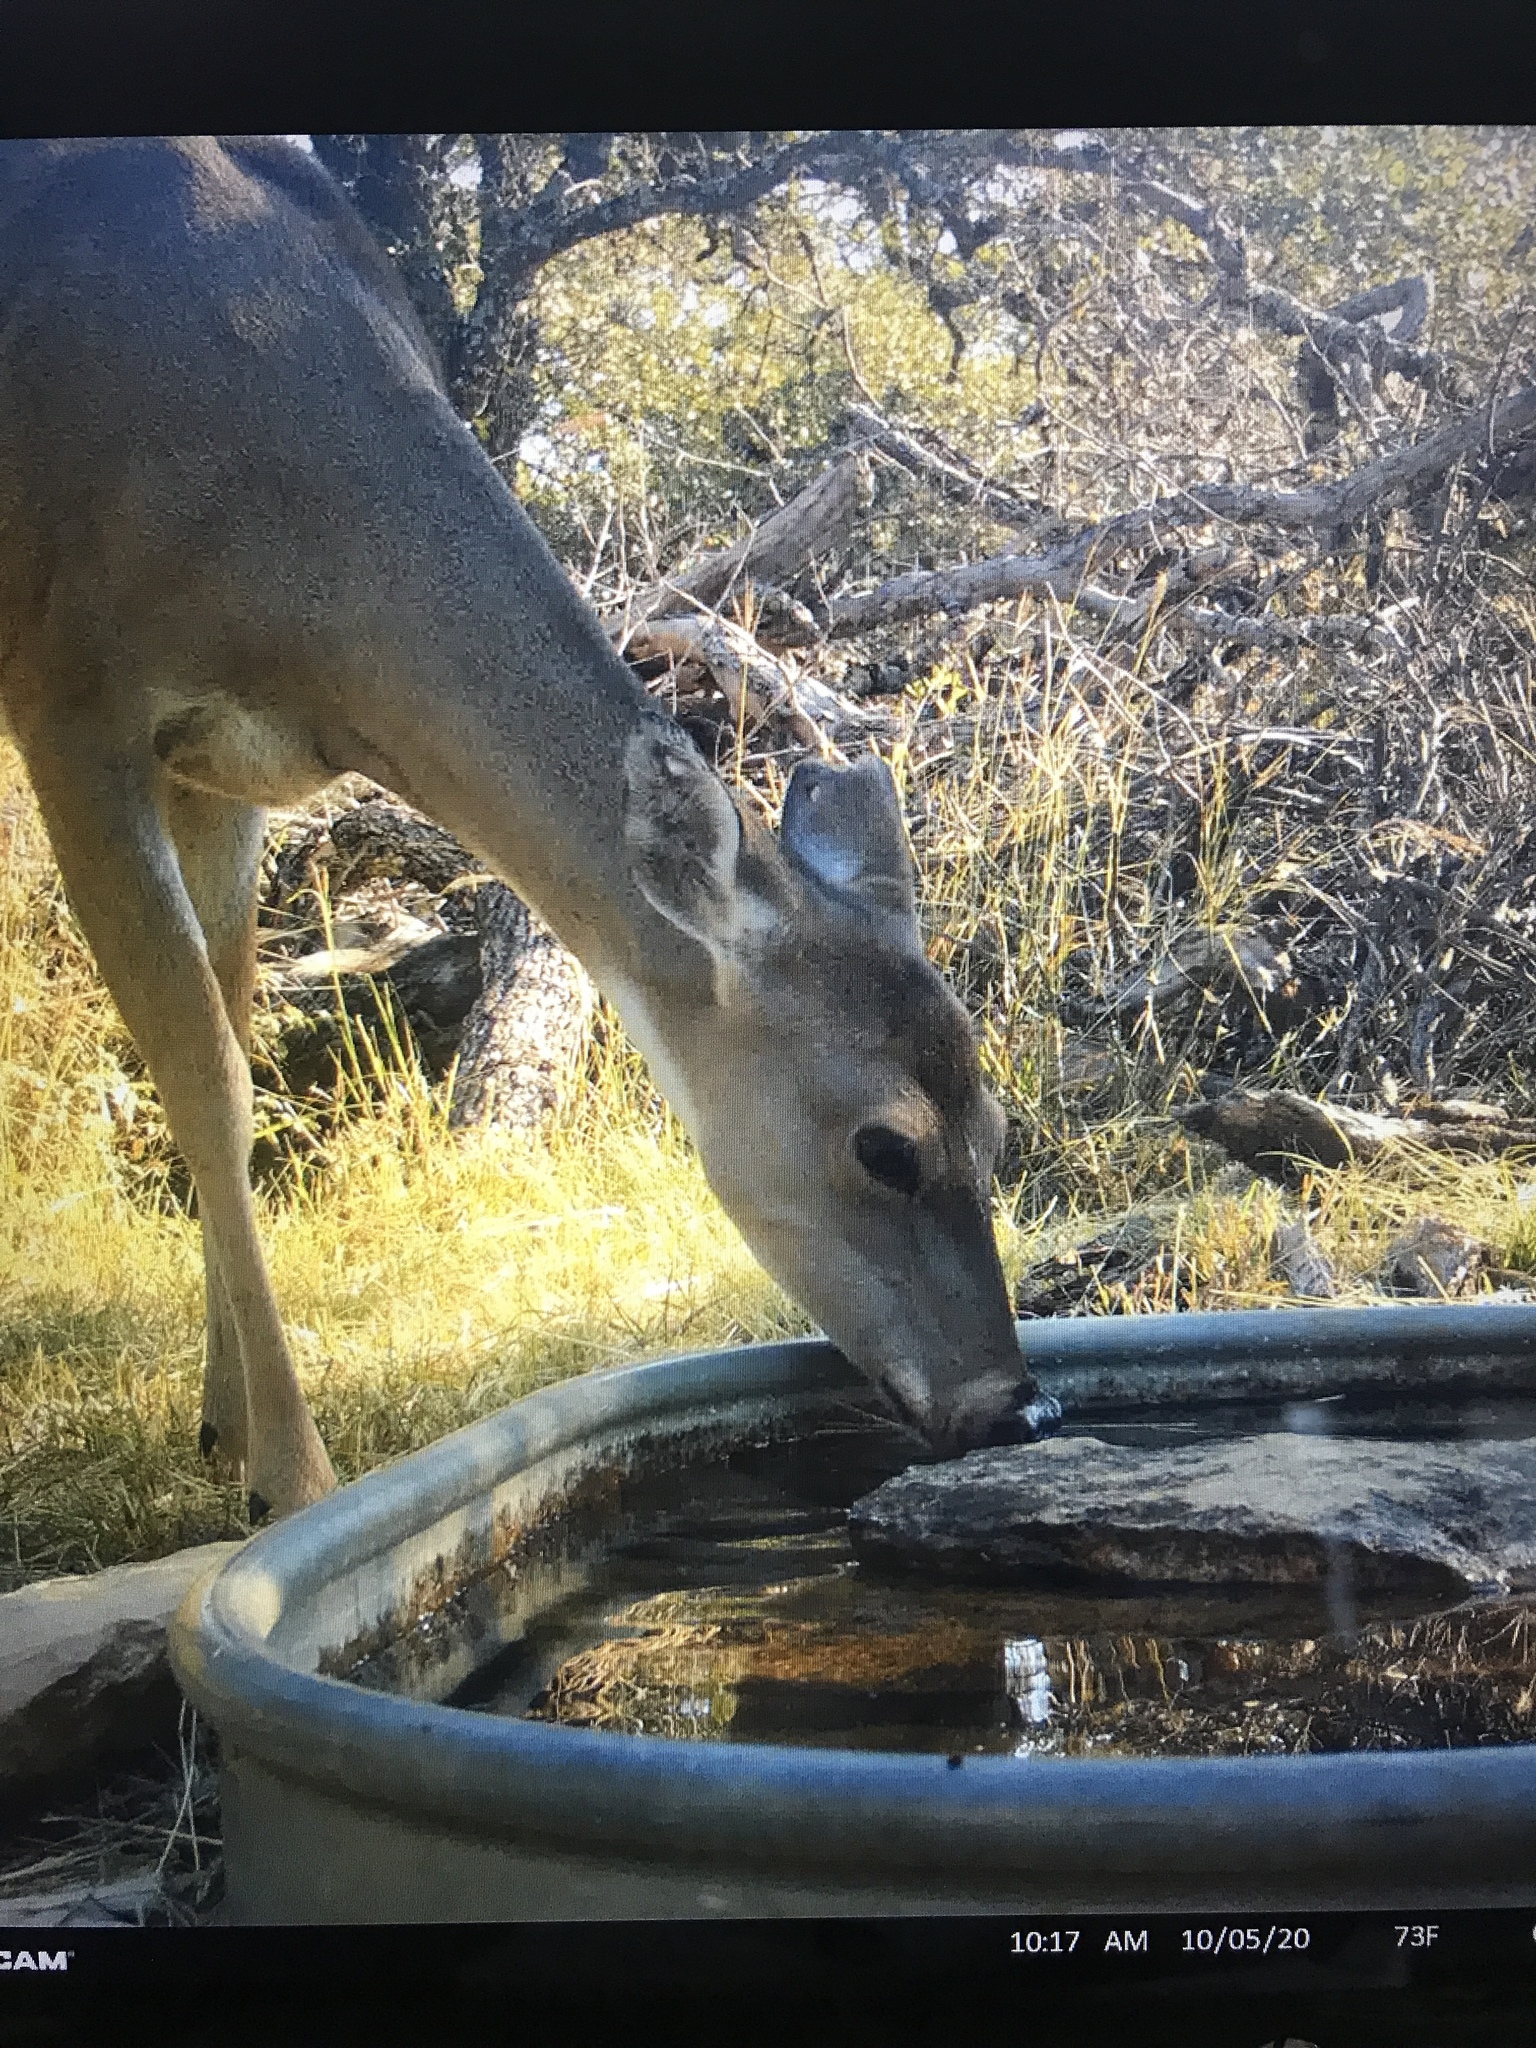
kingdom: Animalia
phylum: Chordata
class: Mammalia
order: Artiodactyla
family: Cervidae
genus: Odocoileus
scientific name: Odocoileus virginianus
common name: White-tailed deer
